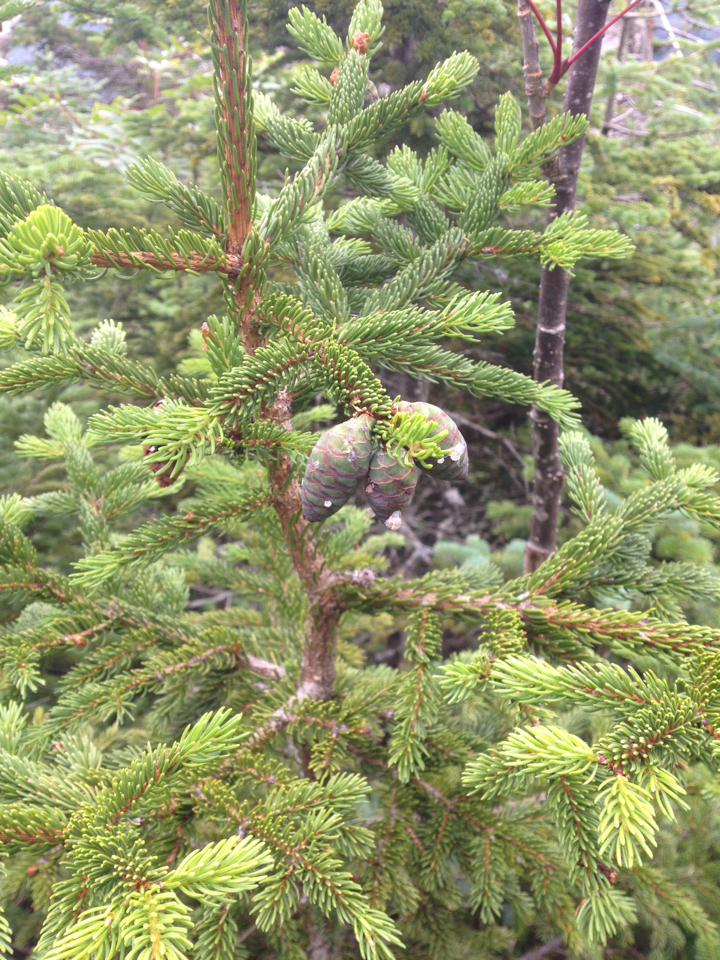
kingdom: Plantae
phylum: Tracheophyta
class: Pinopsida
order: Pinales
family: Pinaceae
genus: Picea
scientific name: Picea rubens
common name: Red spruce
